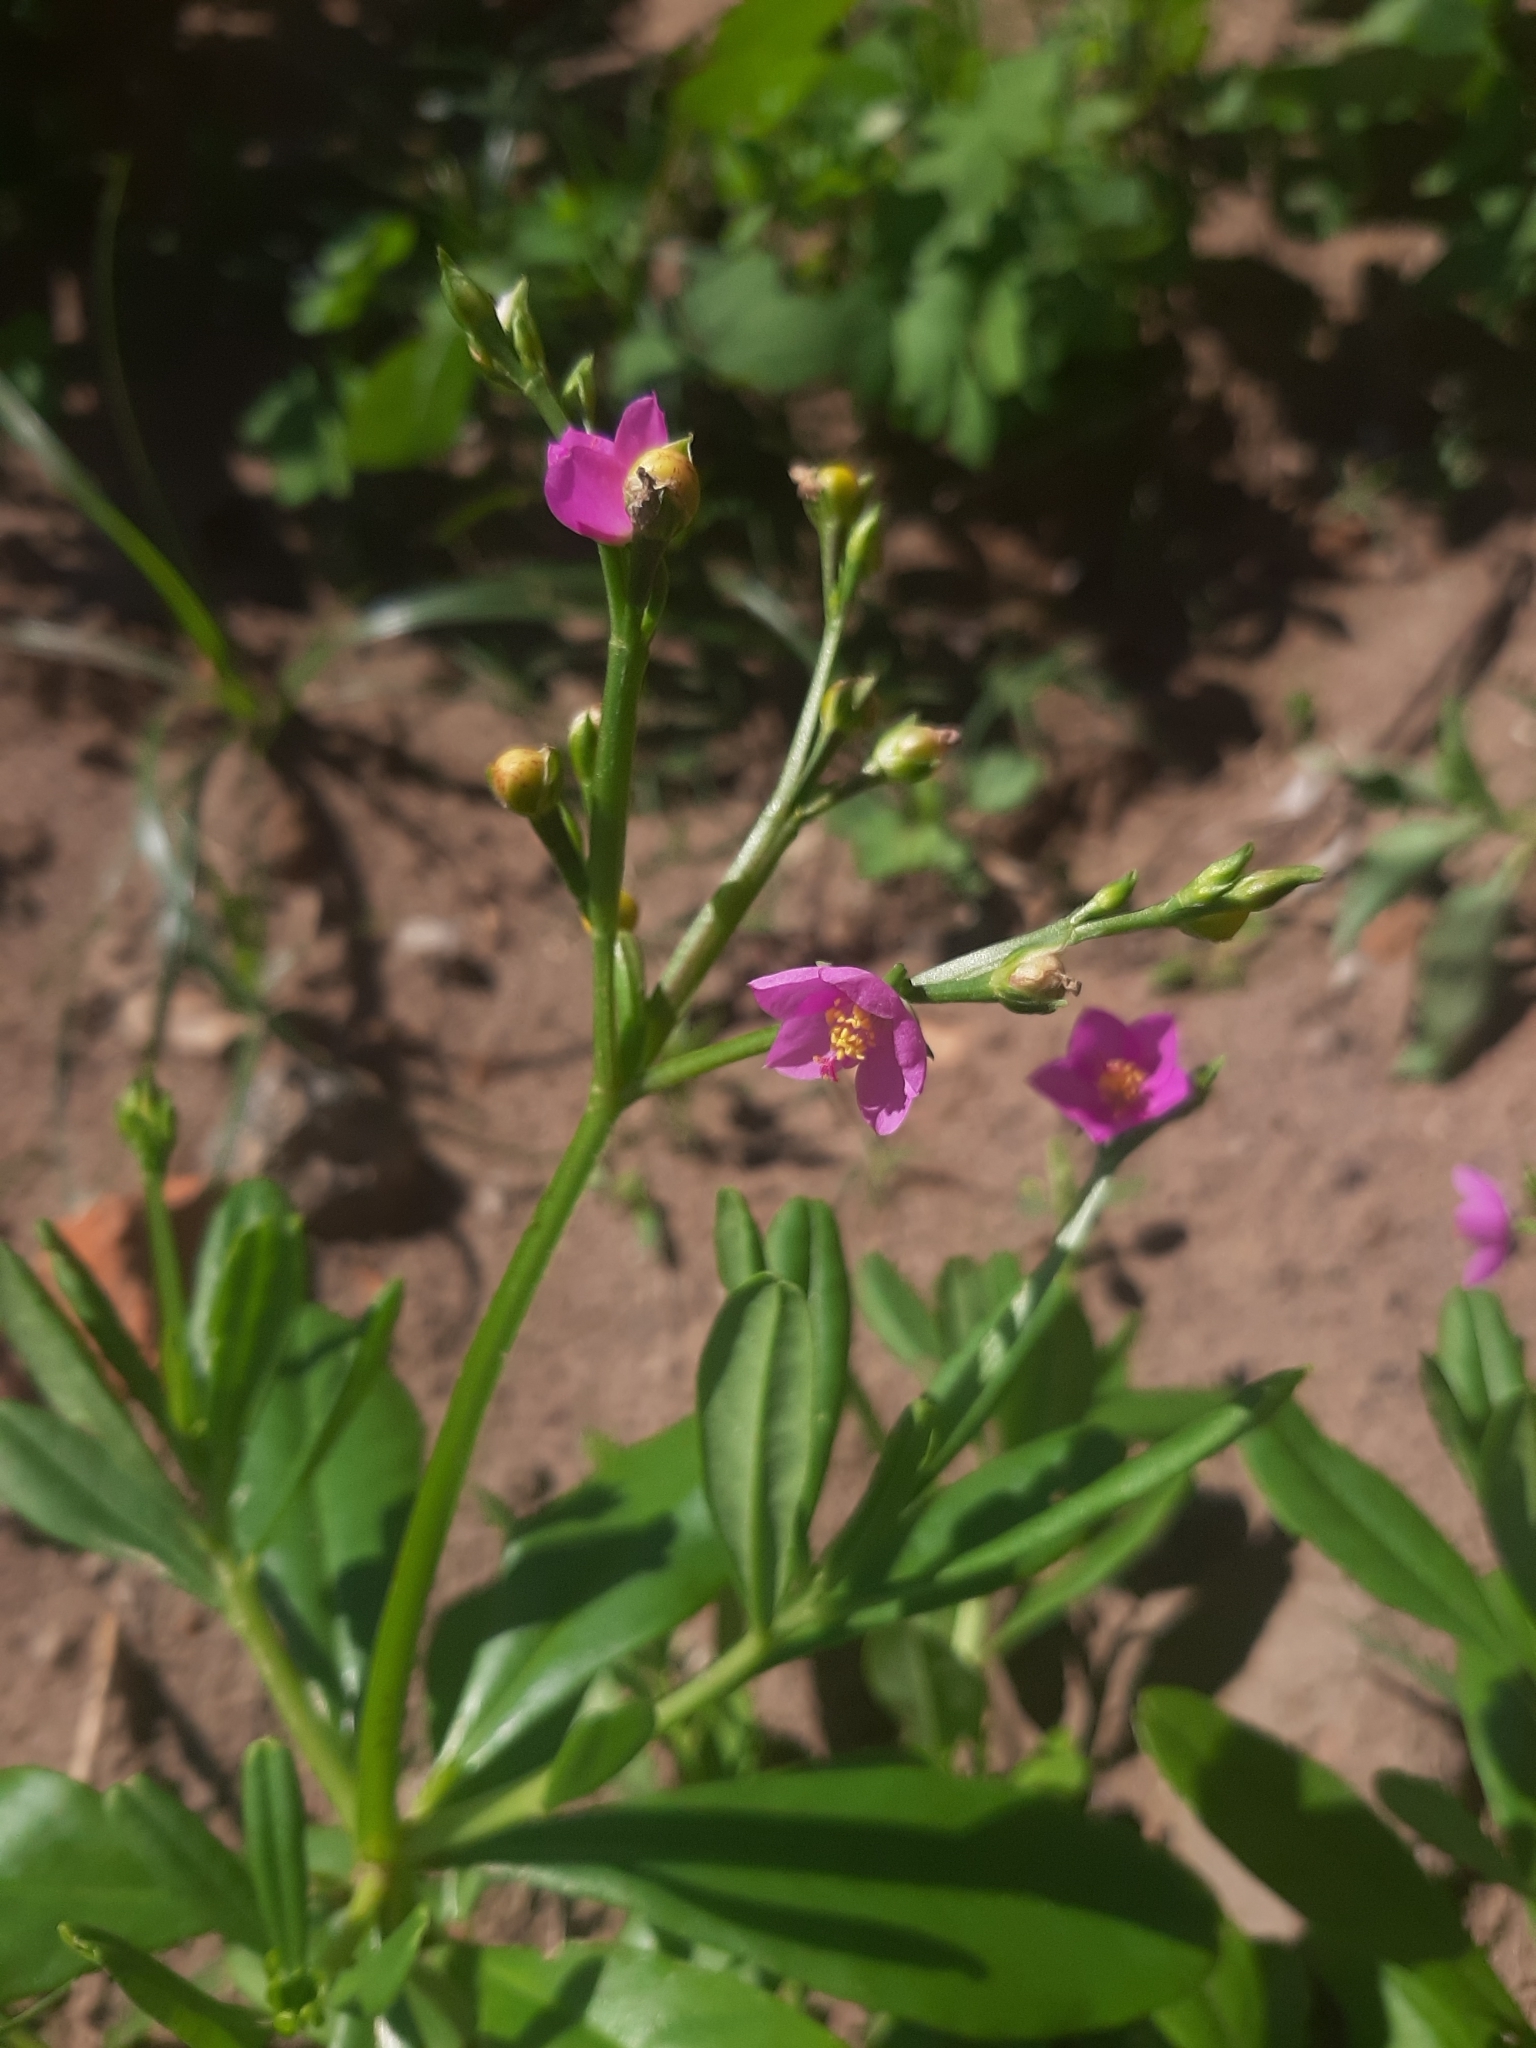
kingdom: Plantae
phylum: Tracheophyta
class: Magnoliopsida
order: Caryophyllales
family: Talinaceae
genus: Talinum
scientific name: Talinum fruticosum
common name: Verdolaga-francesa
